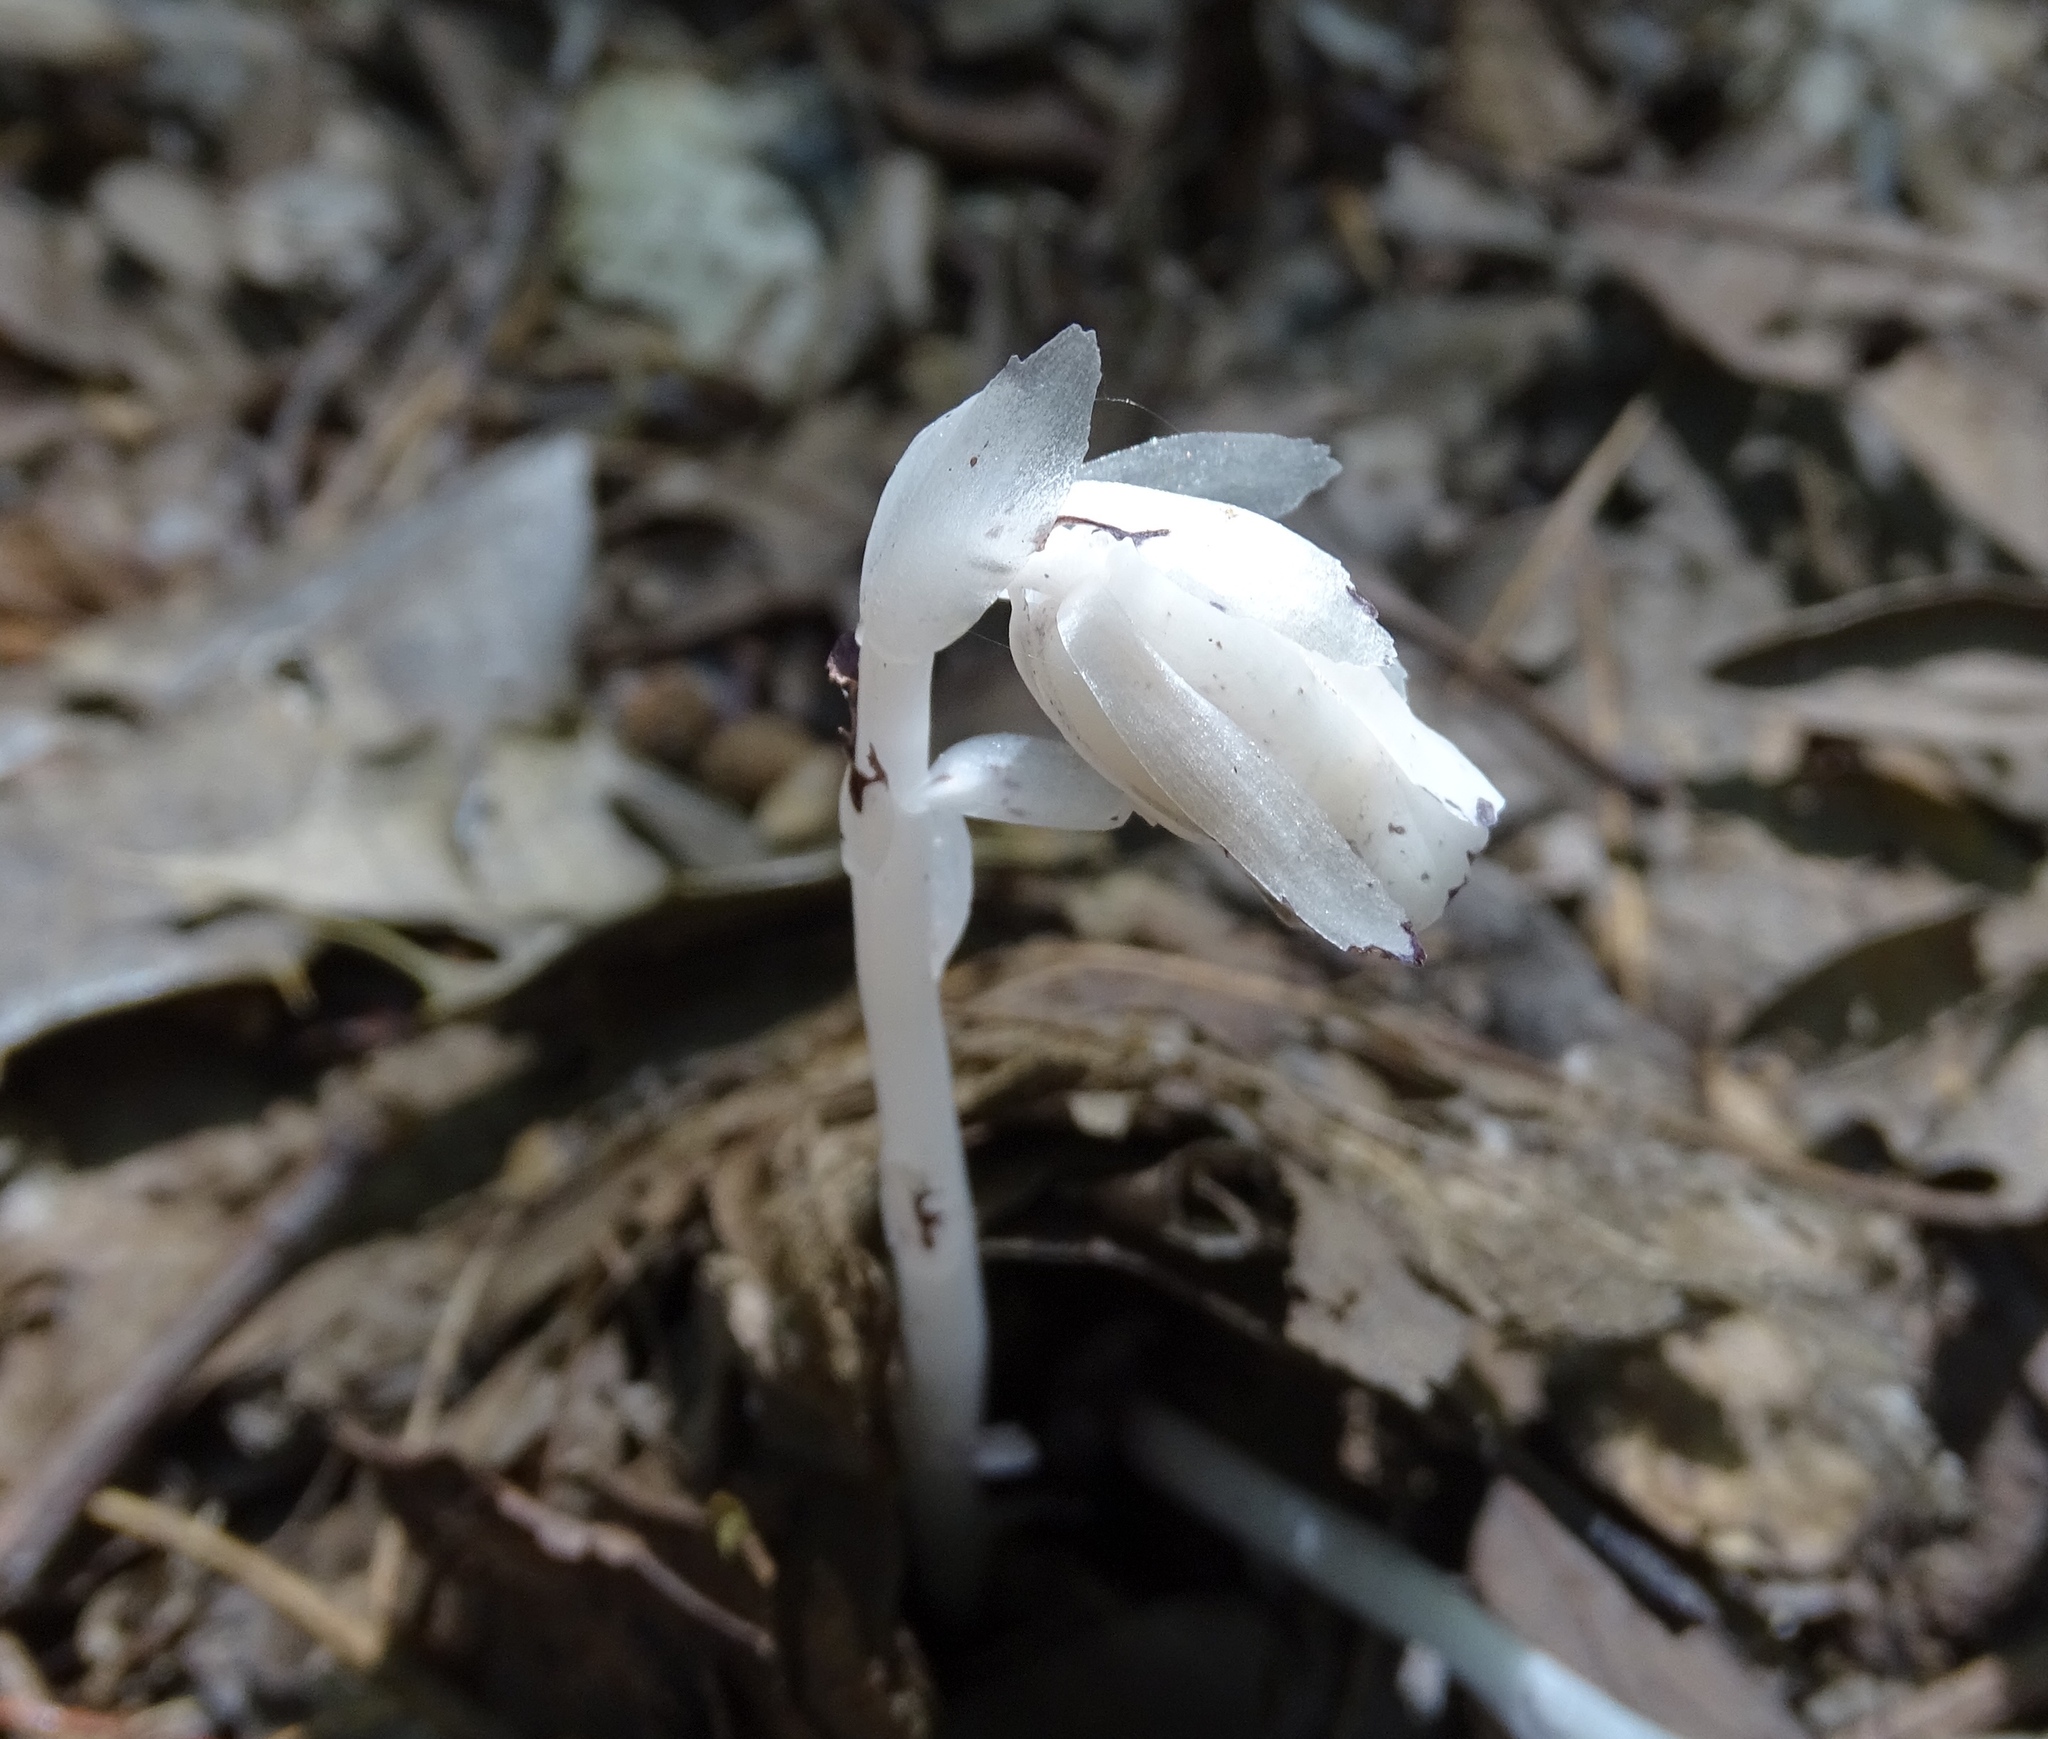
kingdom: Plantae
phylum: Tracheophyta
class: Magnoliopsida
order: Ericales
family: Ericaceae
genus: Monotropa
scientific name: Monotropa uniflora
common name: Convulsion root
